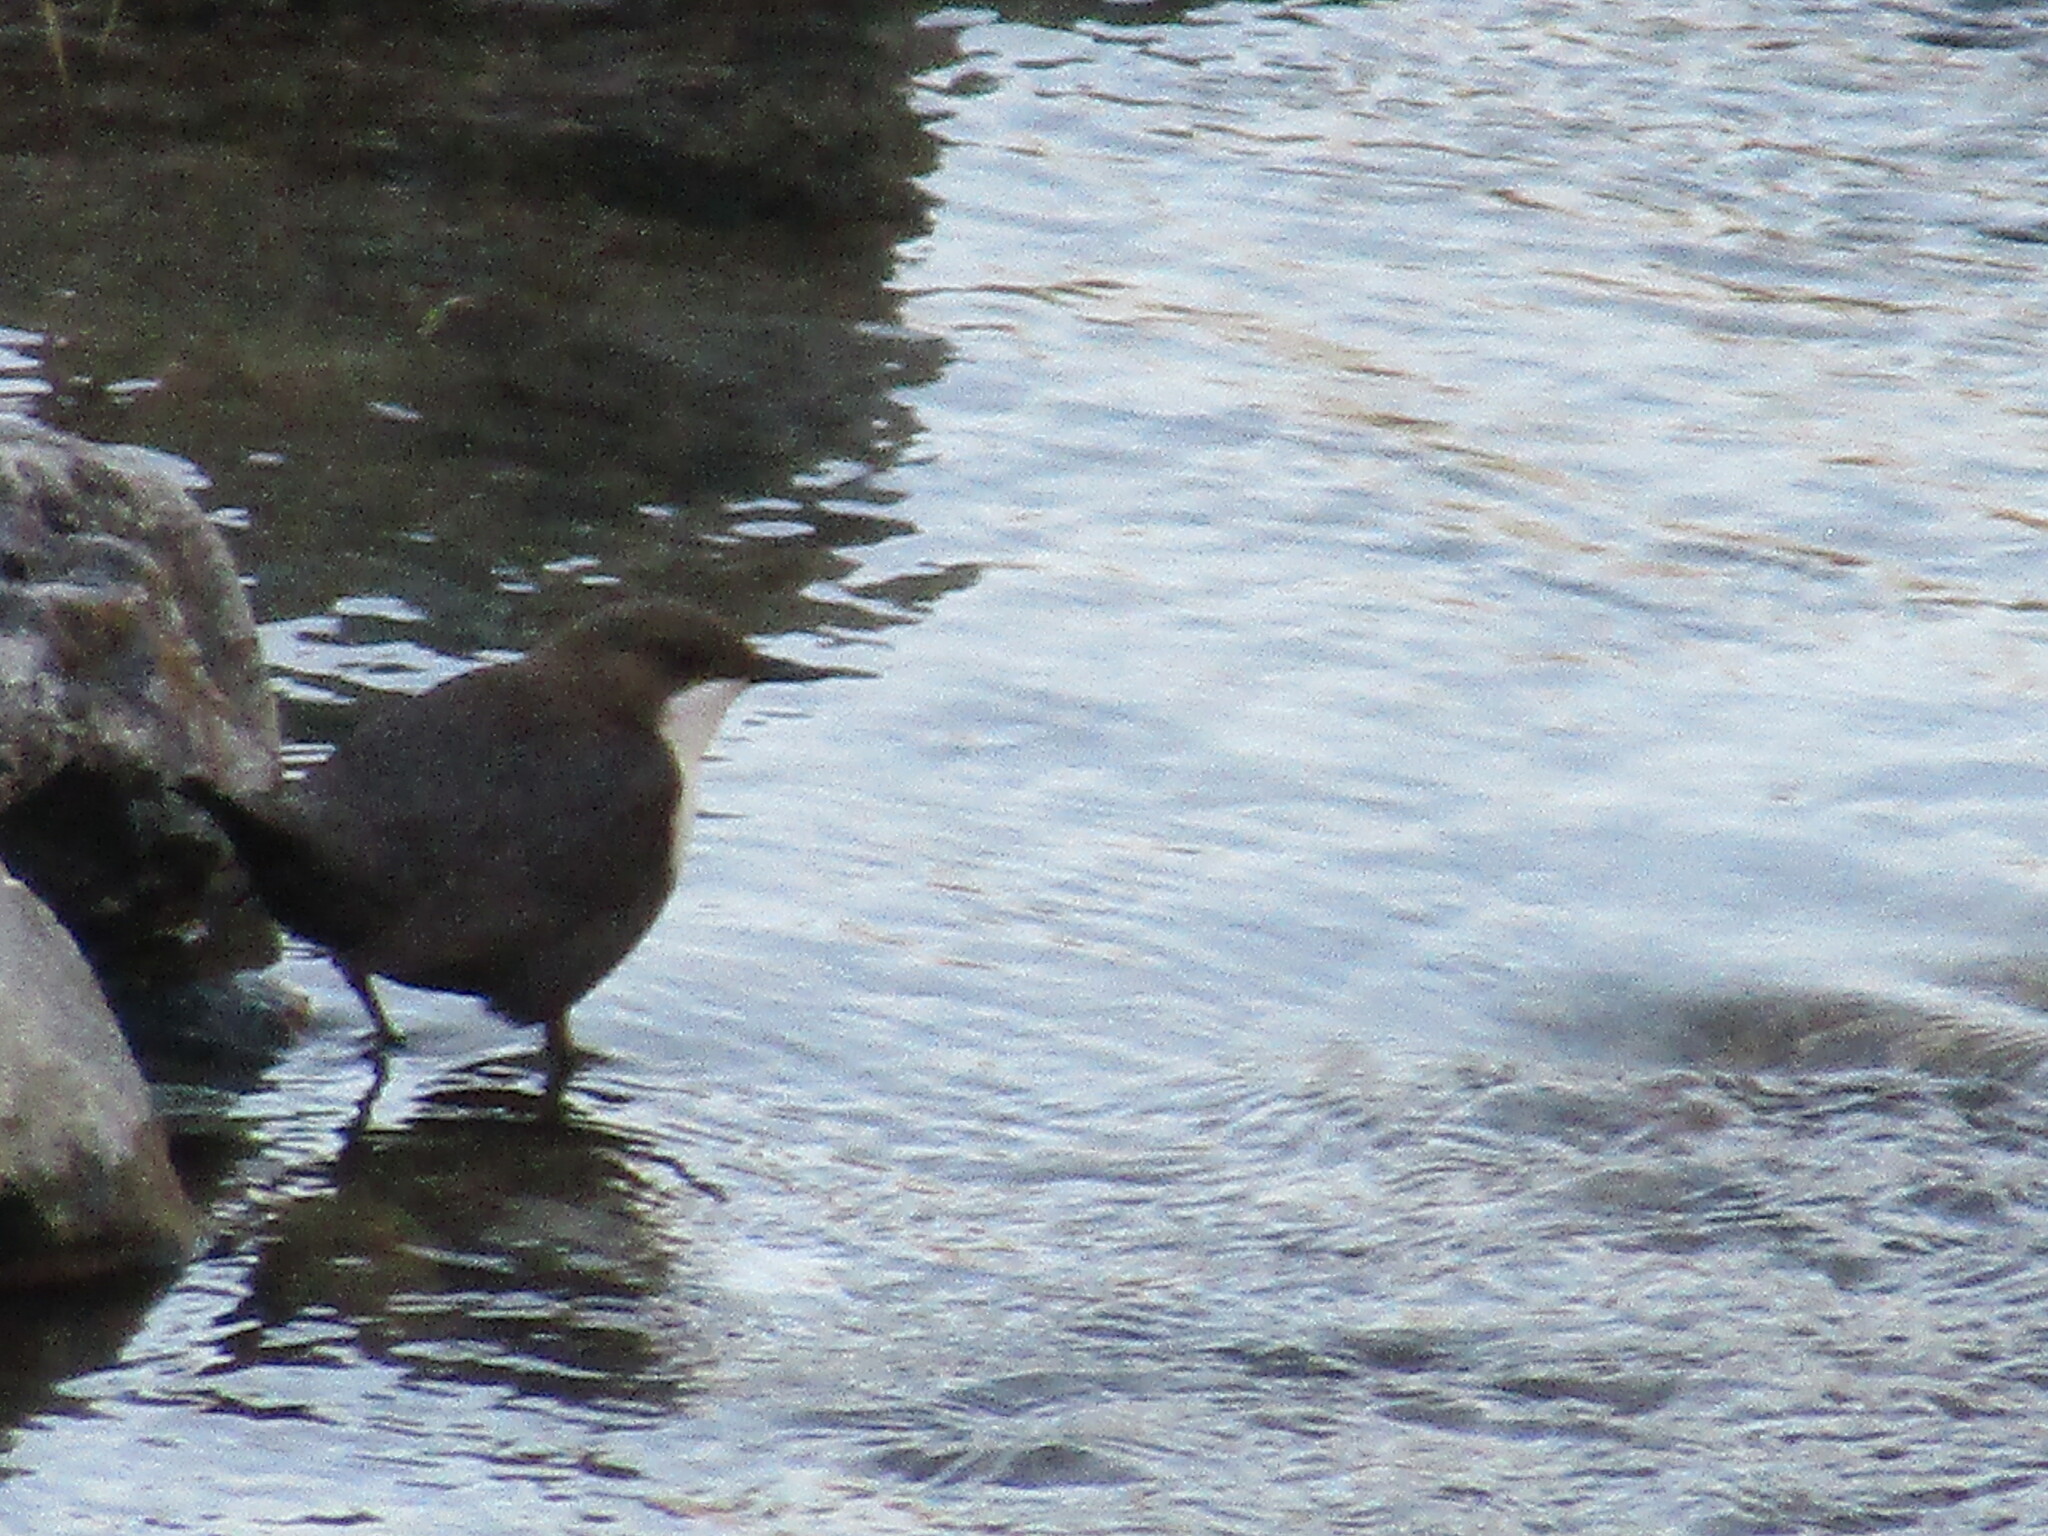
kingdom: Animalia
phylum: Chordata
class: Aves
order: Passeriformes
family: Cinclidae
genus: Cinclus
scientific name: Cinclus cinclus
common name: White-throated dipper
